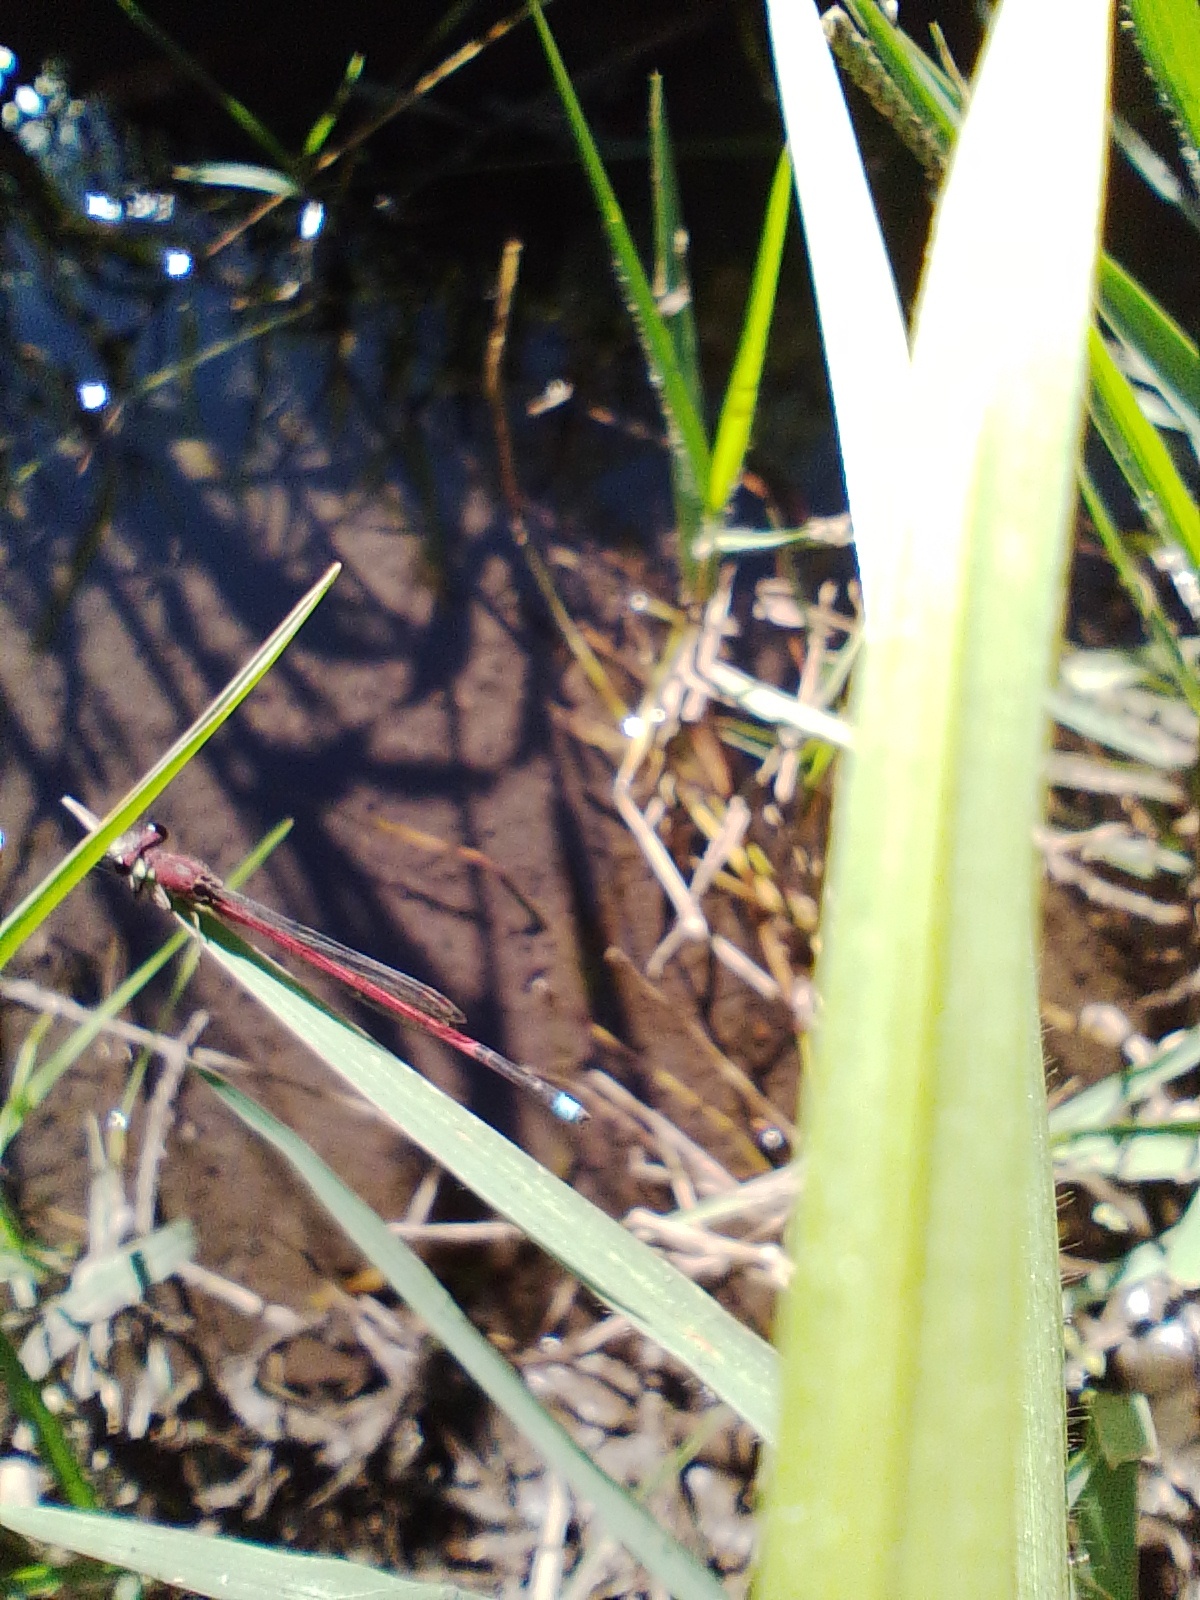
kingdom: Animalia
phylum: Arthropoda
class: Insecta
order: Odonata
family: Coenagrionidae
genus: Oxyagrion
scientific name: Oxyagrion terminale
